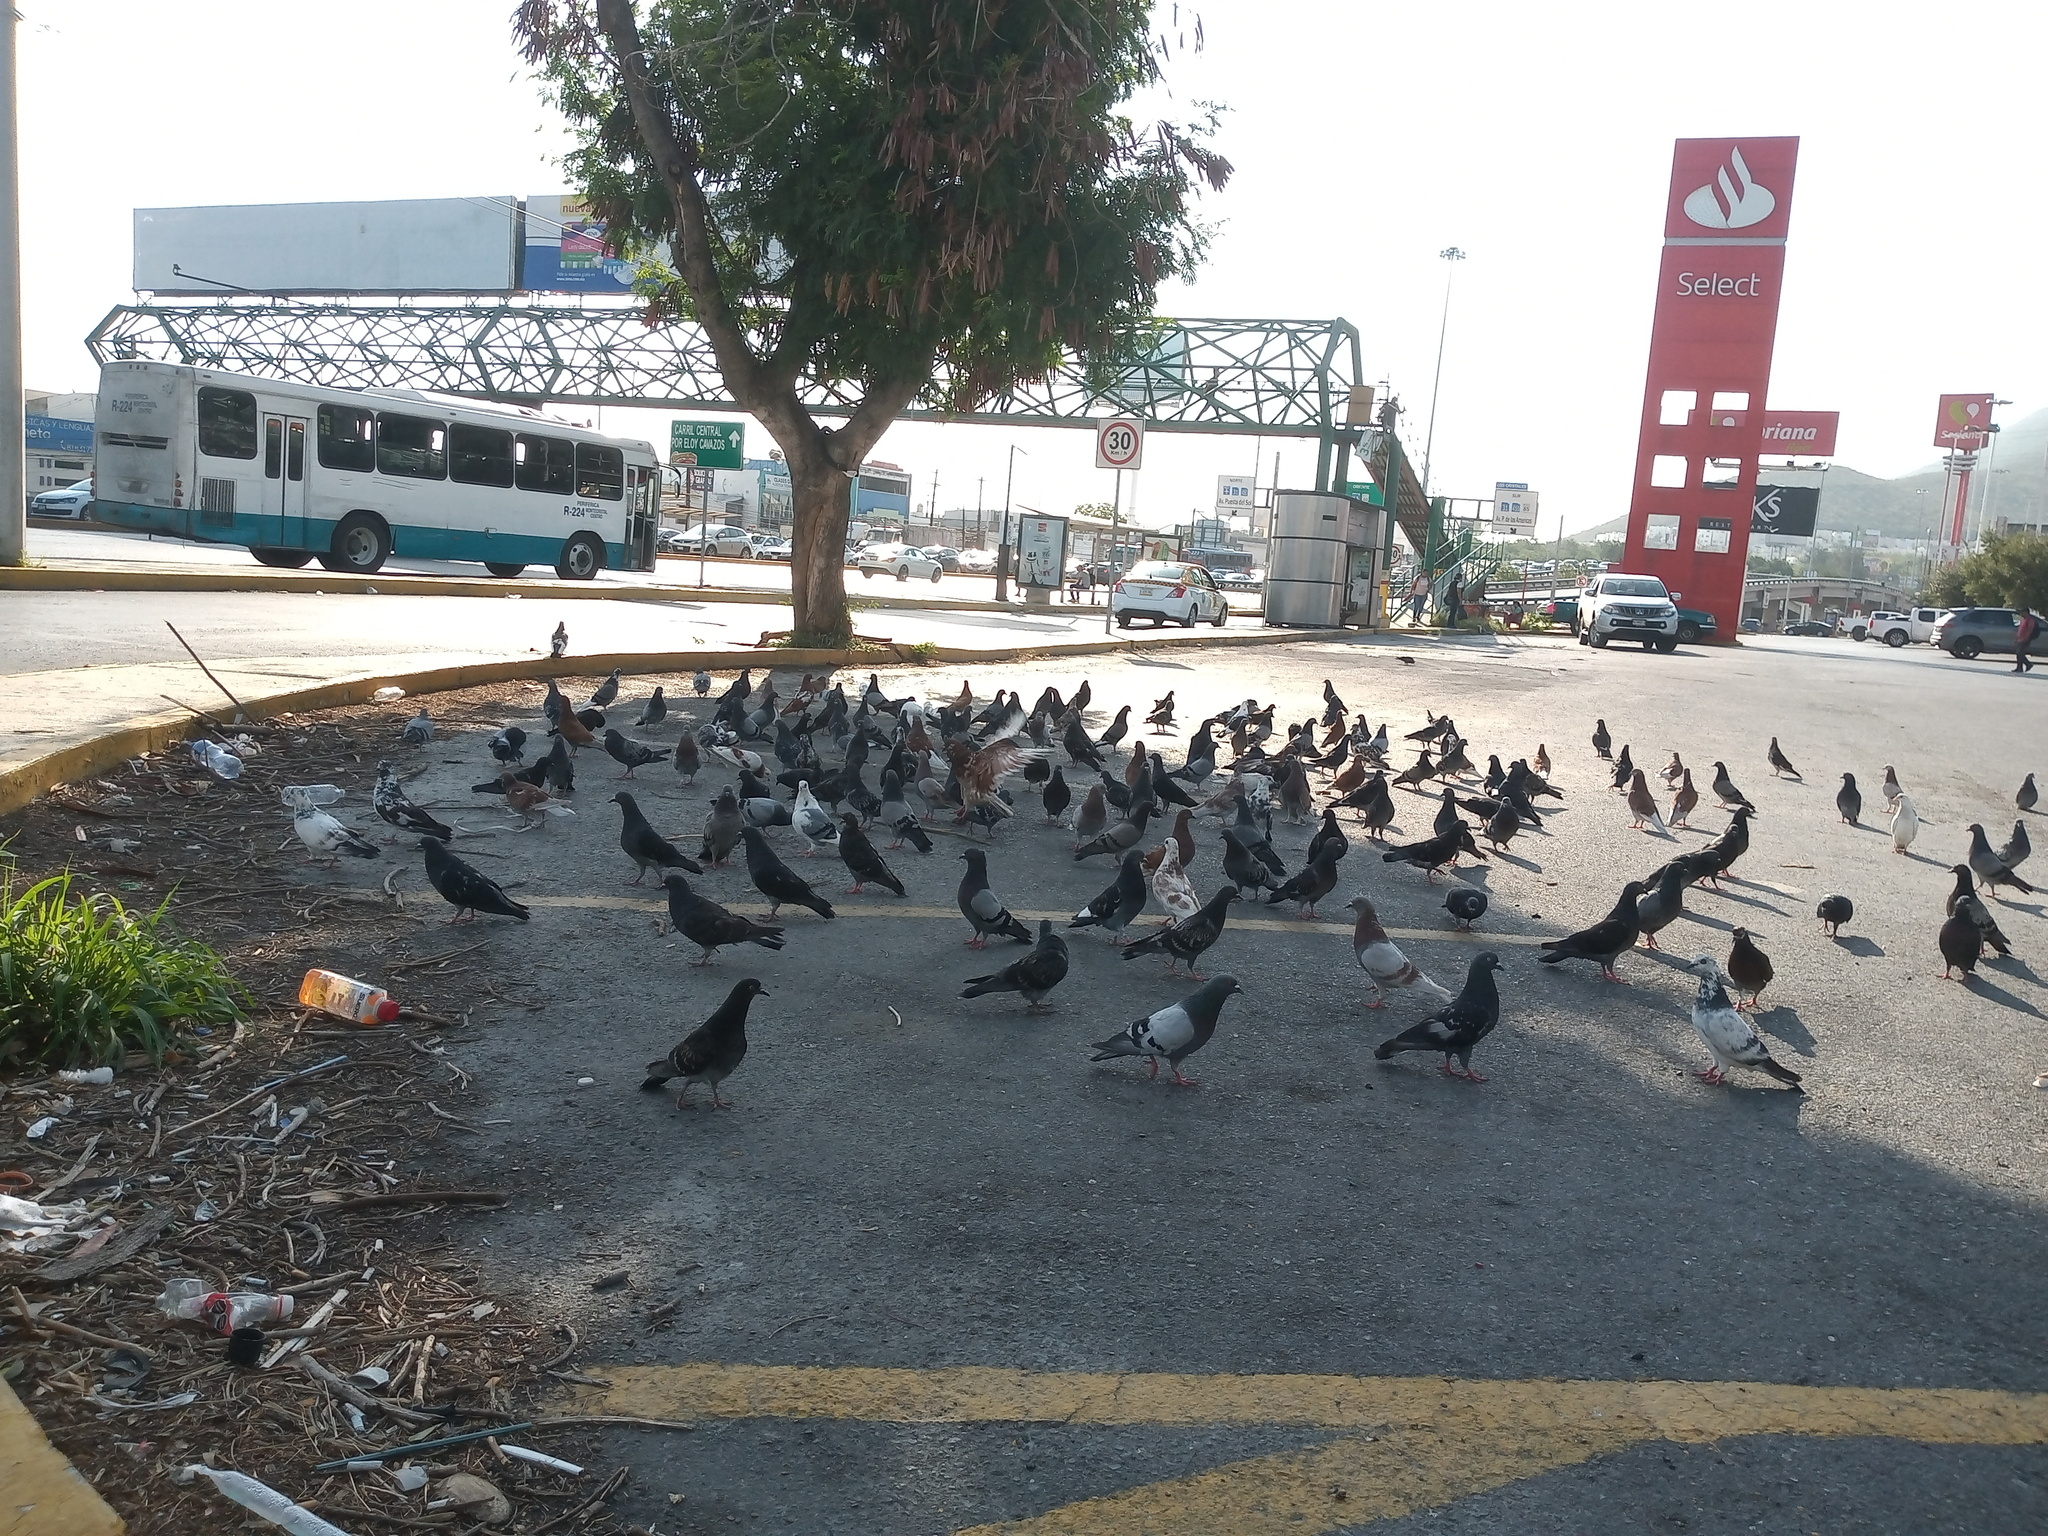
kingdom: Animalia
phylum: Chordata
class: Aves
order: Columbiformes
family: Columbidae
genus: Columba
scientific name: Columba livia
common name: Rock pigeon
